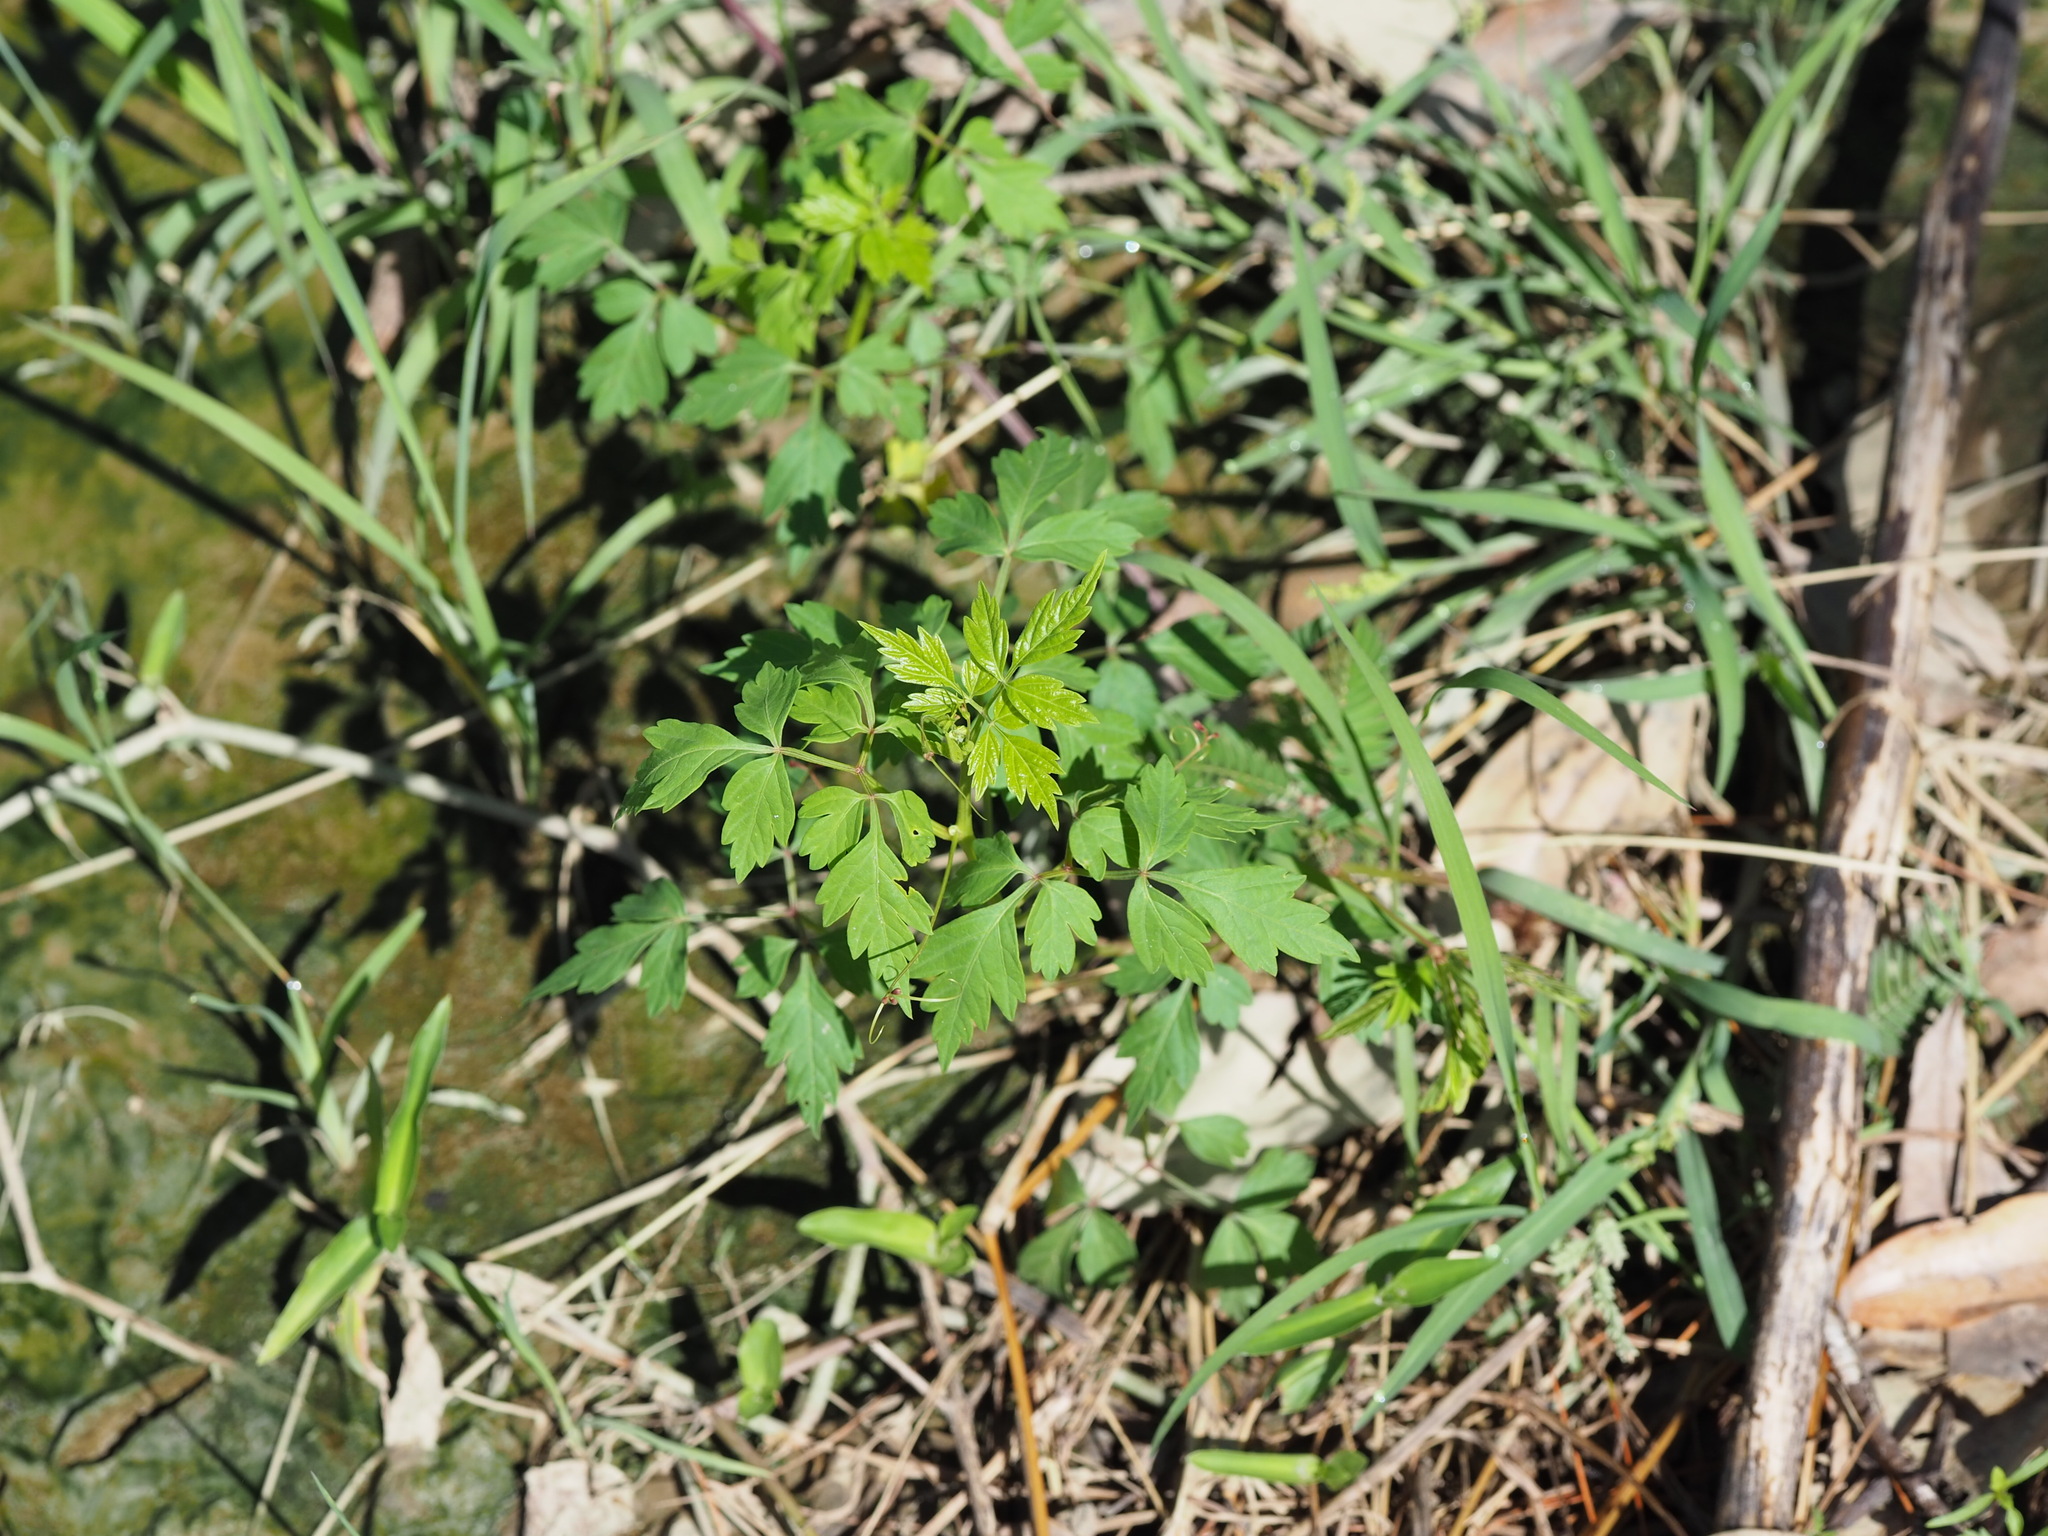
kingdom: Plantae
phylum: Tracheophyta
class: Magnoliopsida
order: Sapindales
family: Sapindaceae
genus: Cardiospermum
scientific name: Cardiospermum halicacabum
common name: Balloon vine
